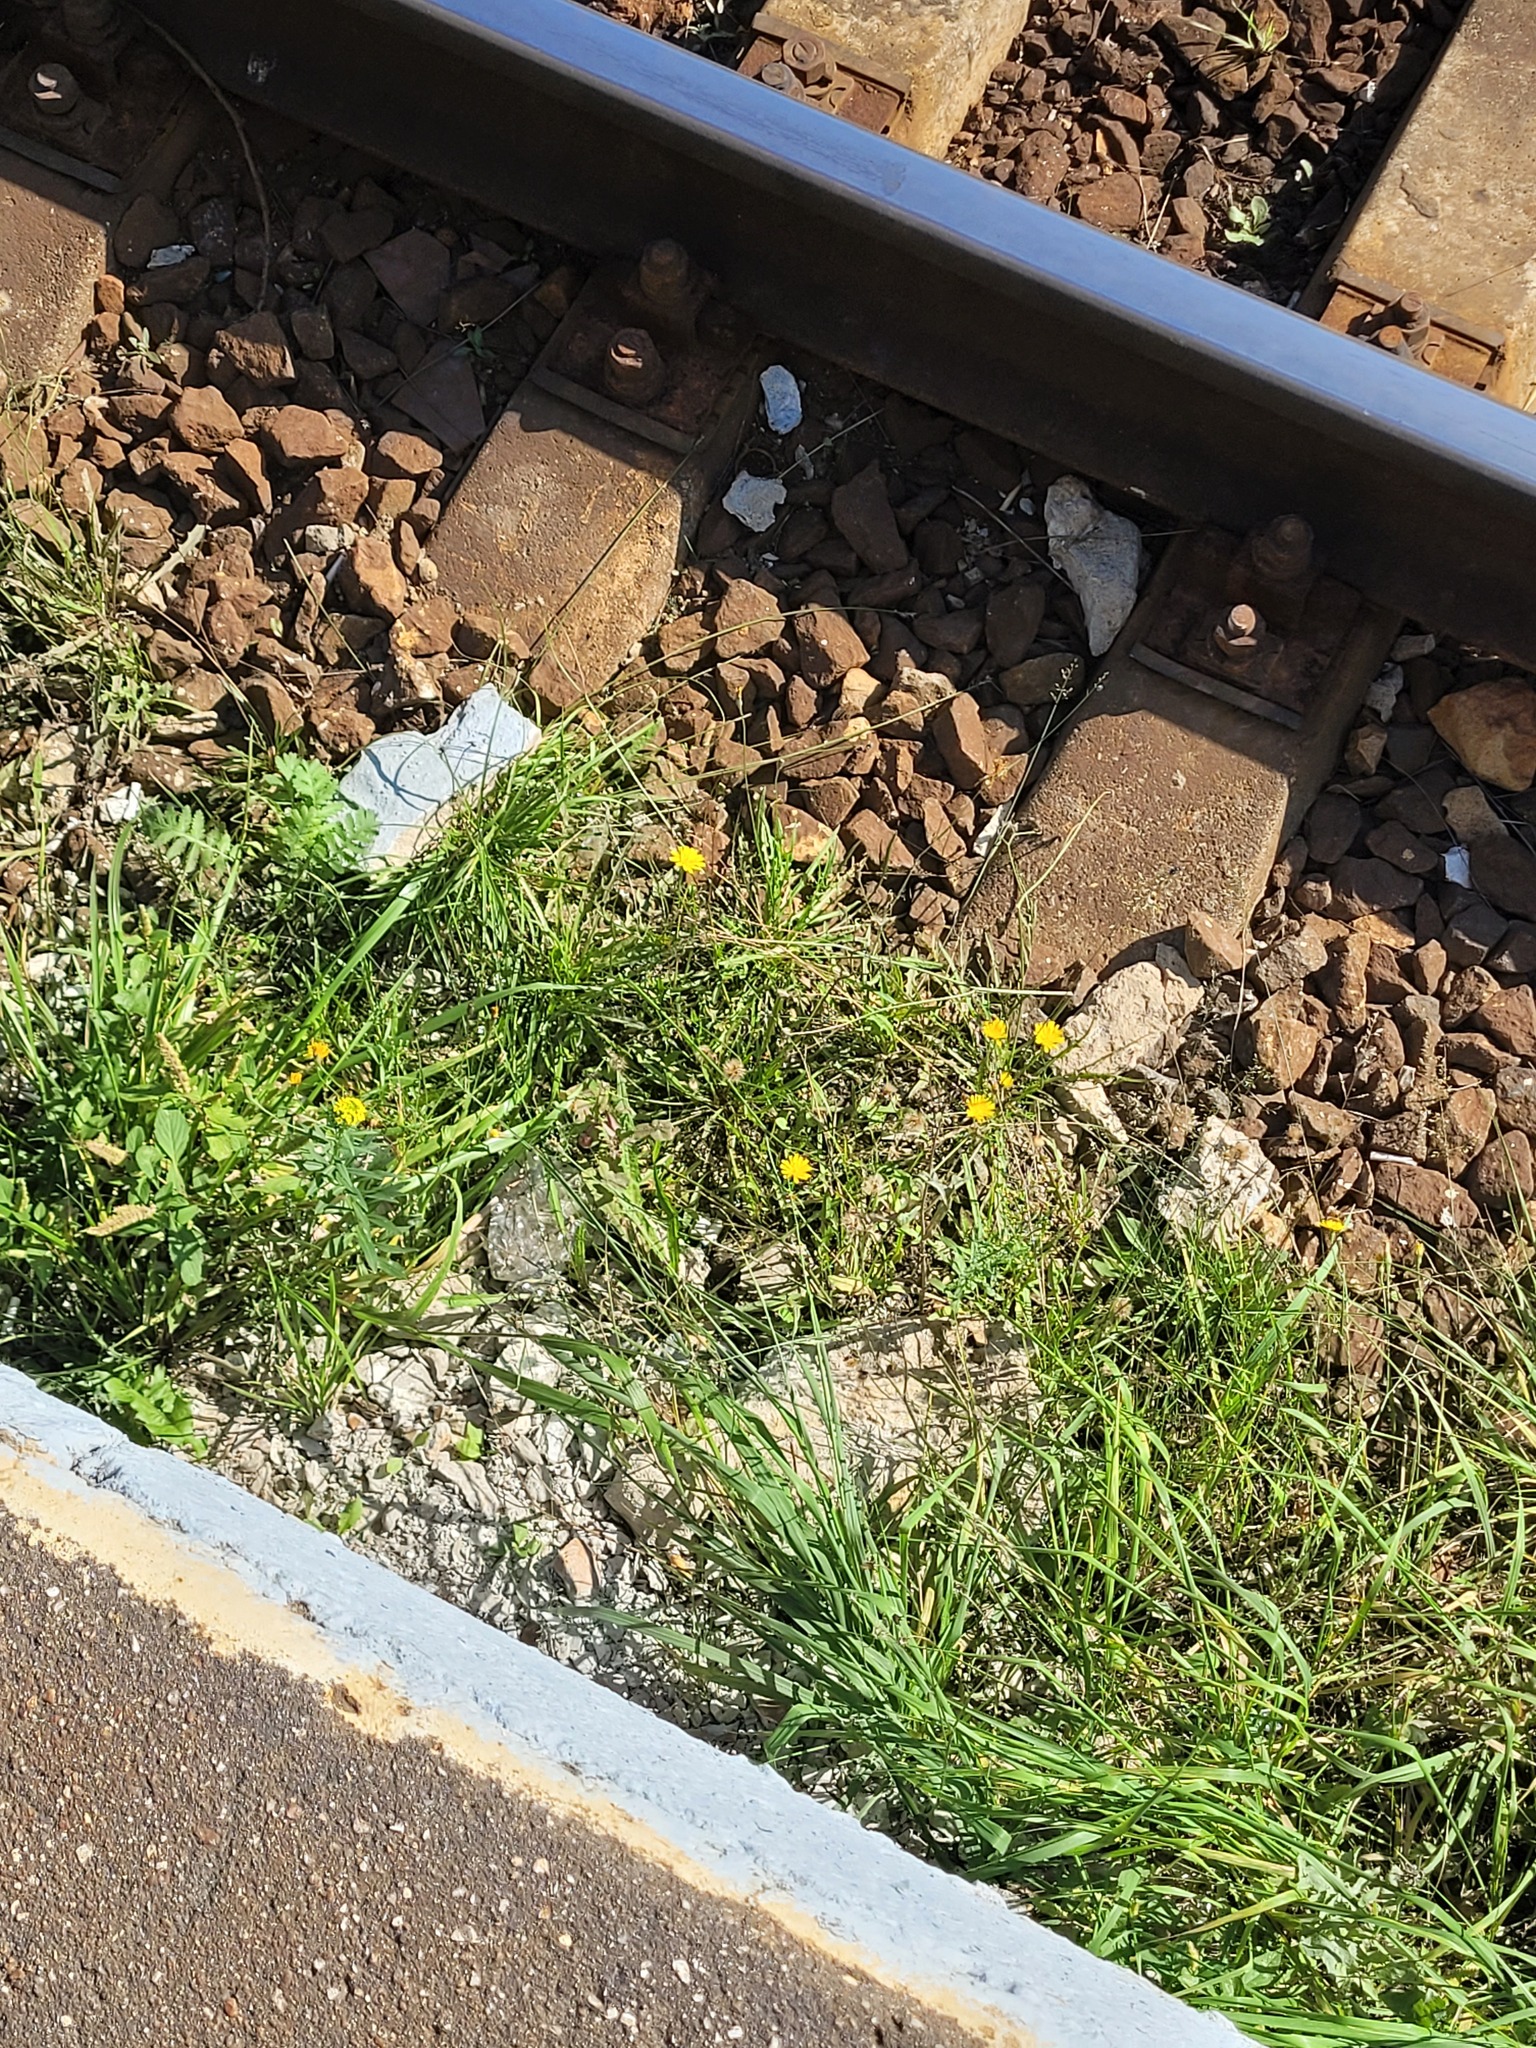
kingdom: Plantae
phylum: Tracheophyta
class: Magnoliopsida
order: Asterales
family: Asteraceae
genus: Scorzoneroides
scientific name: Scorzoneroides autumnalis
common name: Autumn hawkbit
